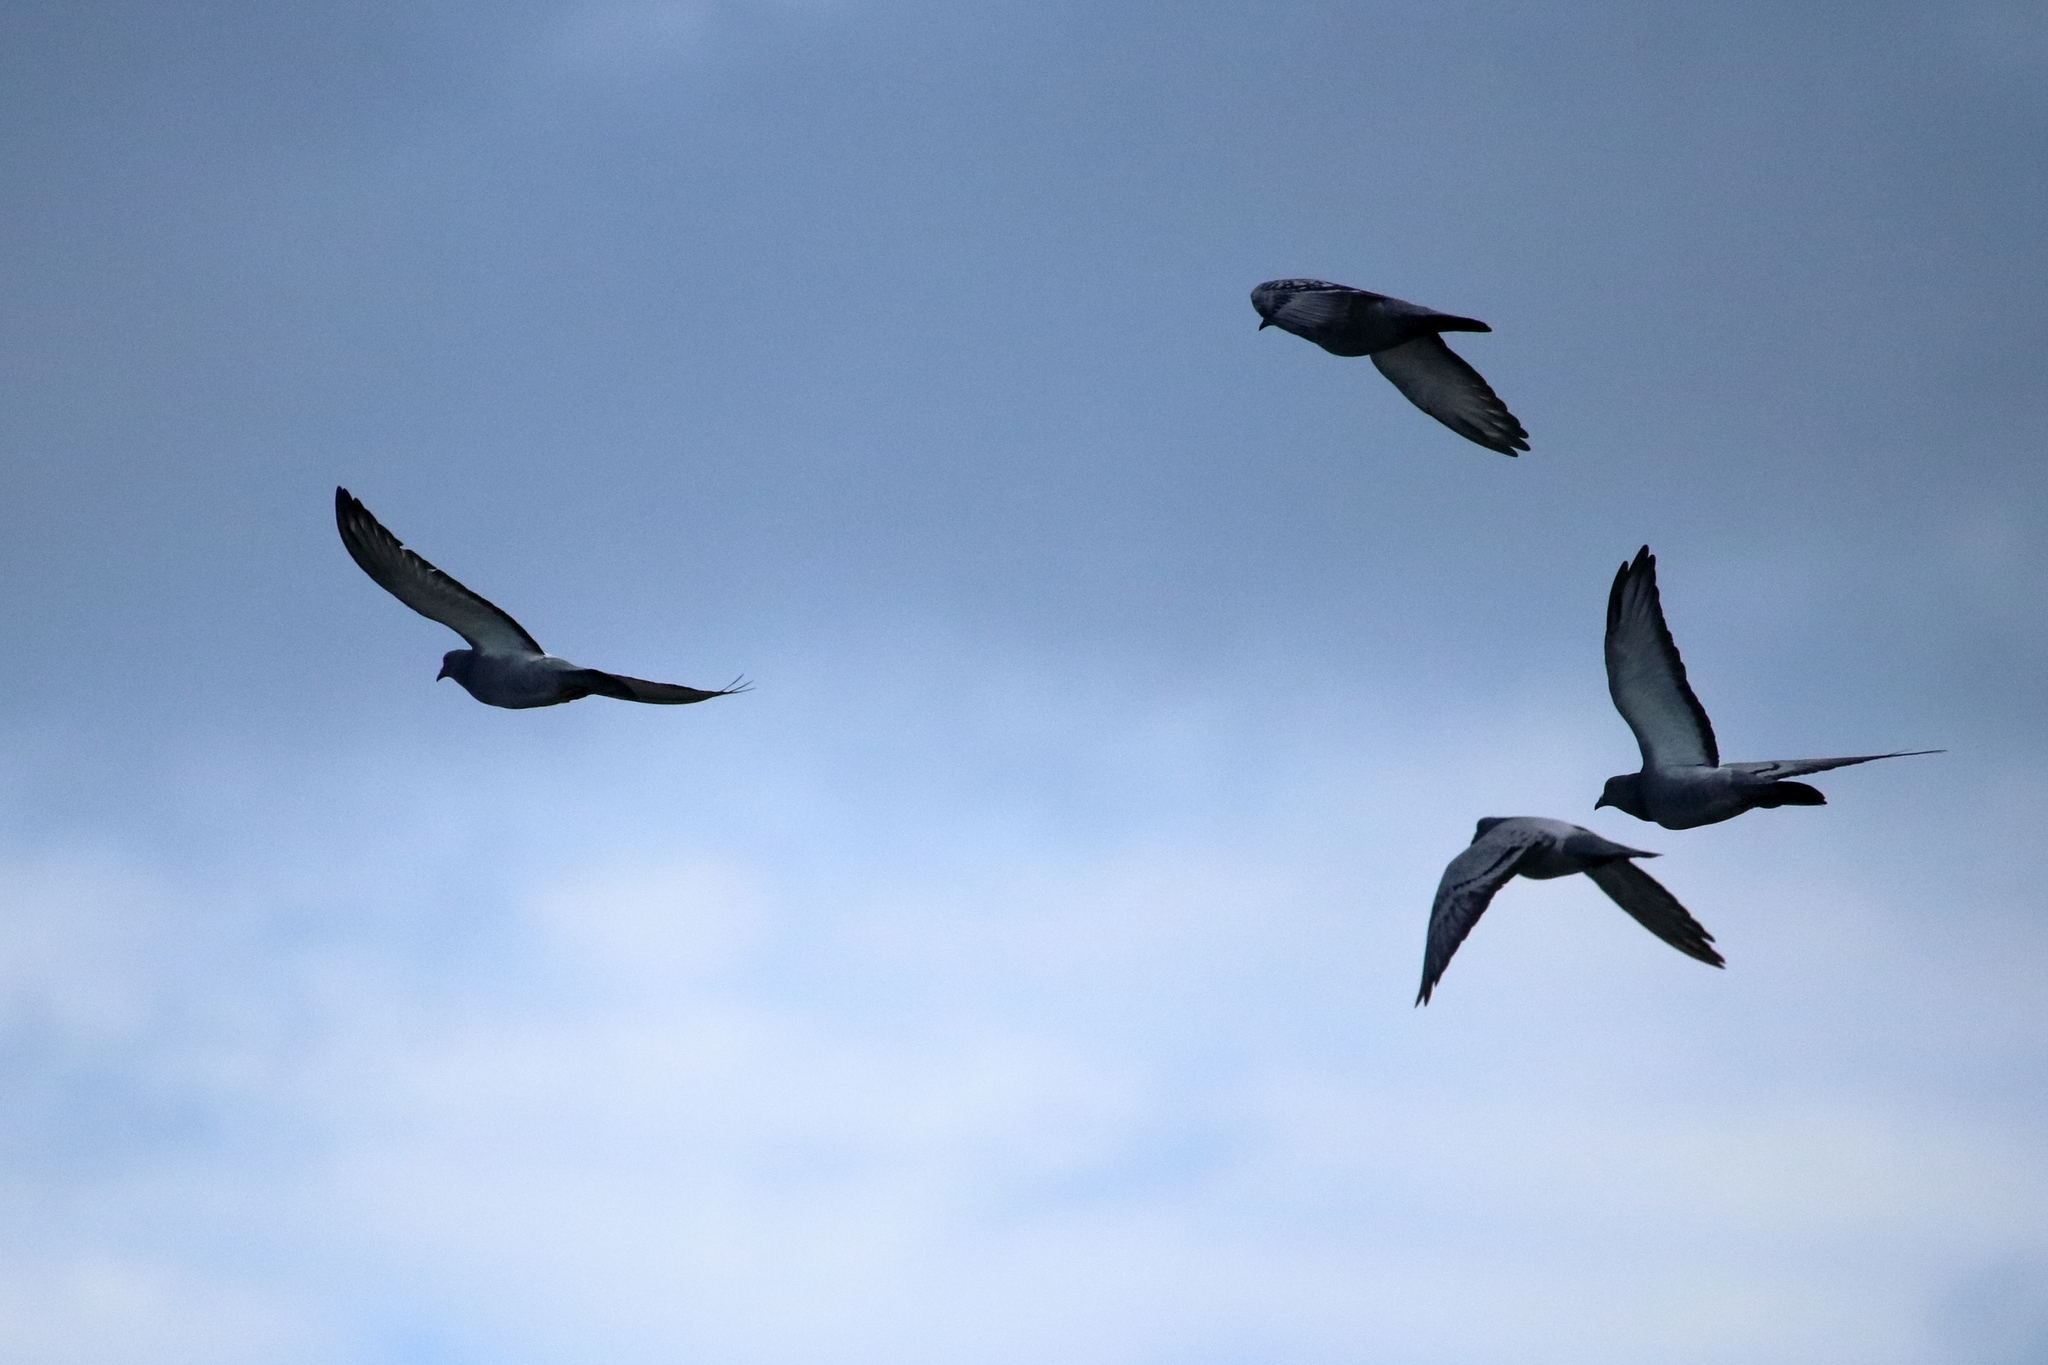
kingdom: Animalia
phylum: Chordata
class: Aves
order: Columbiformes
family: Columbidae
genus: Columba
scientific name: Columba livia
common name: Rock pigeon
